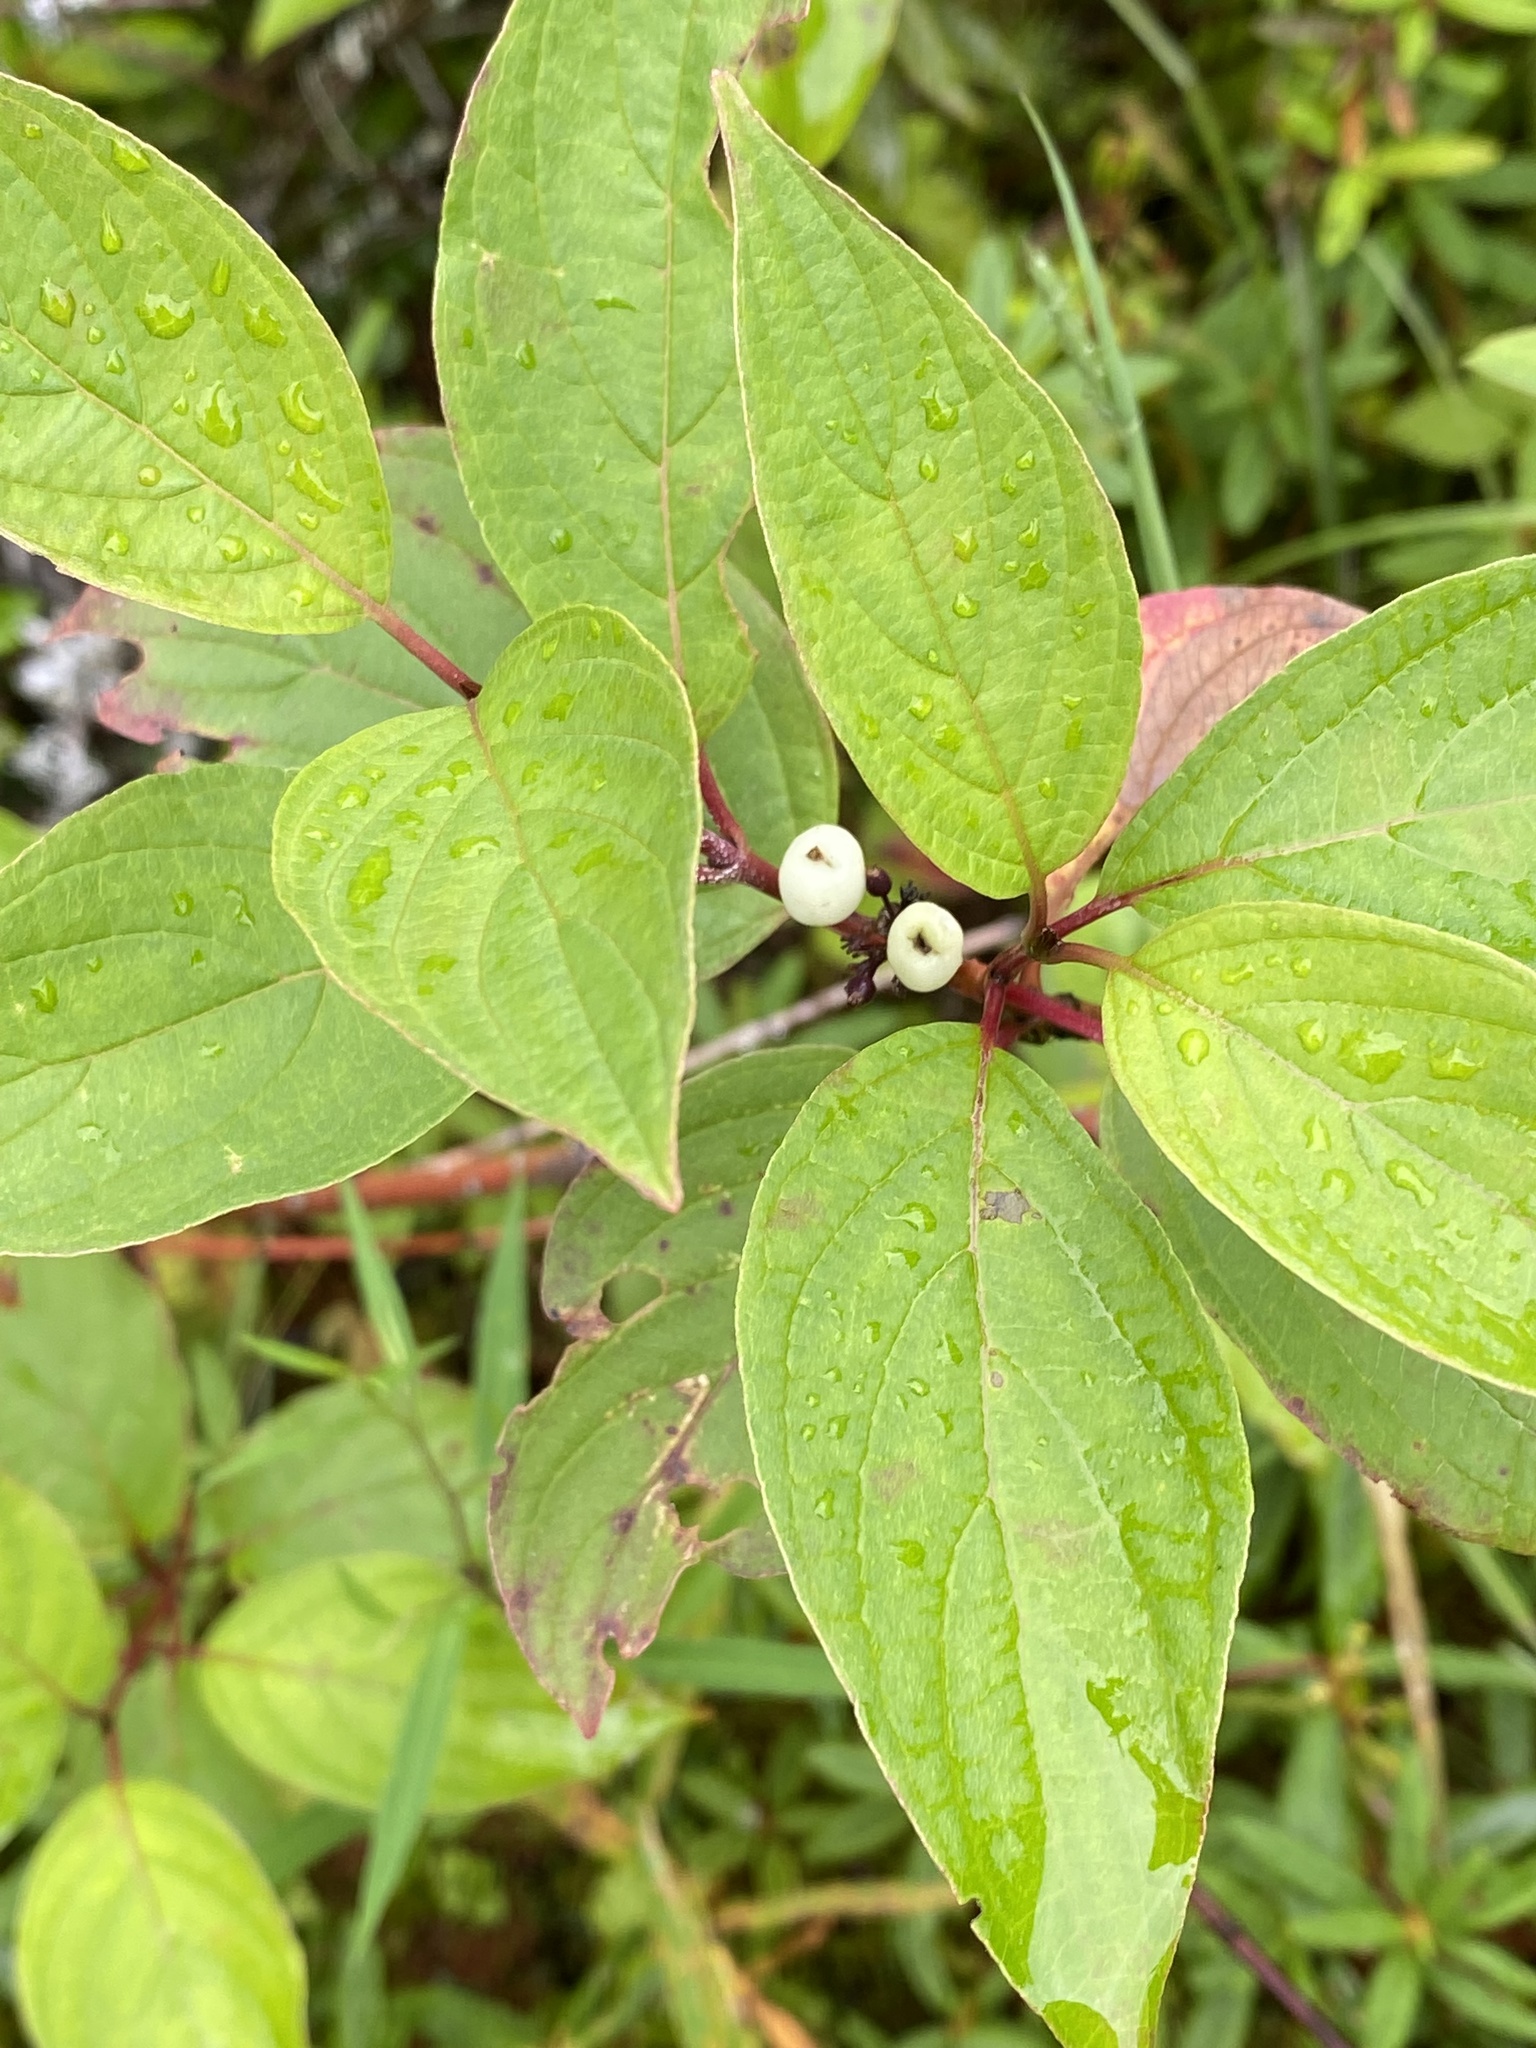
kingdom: Plantae
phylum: Tracheophyta
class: Magnoliopsida
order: Cornales
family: Cornaceae
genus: Cornus
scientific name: Cornus sericea
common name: Red-osier dogwood
